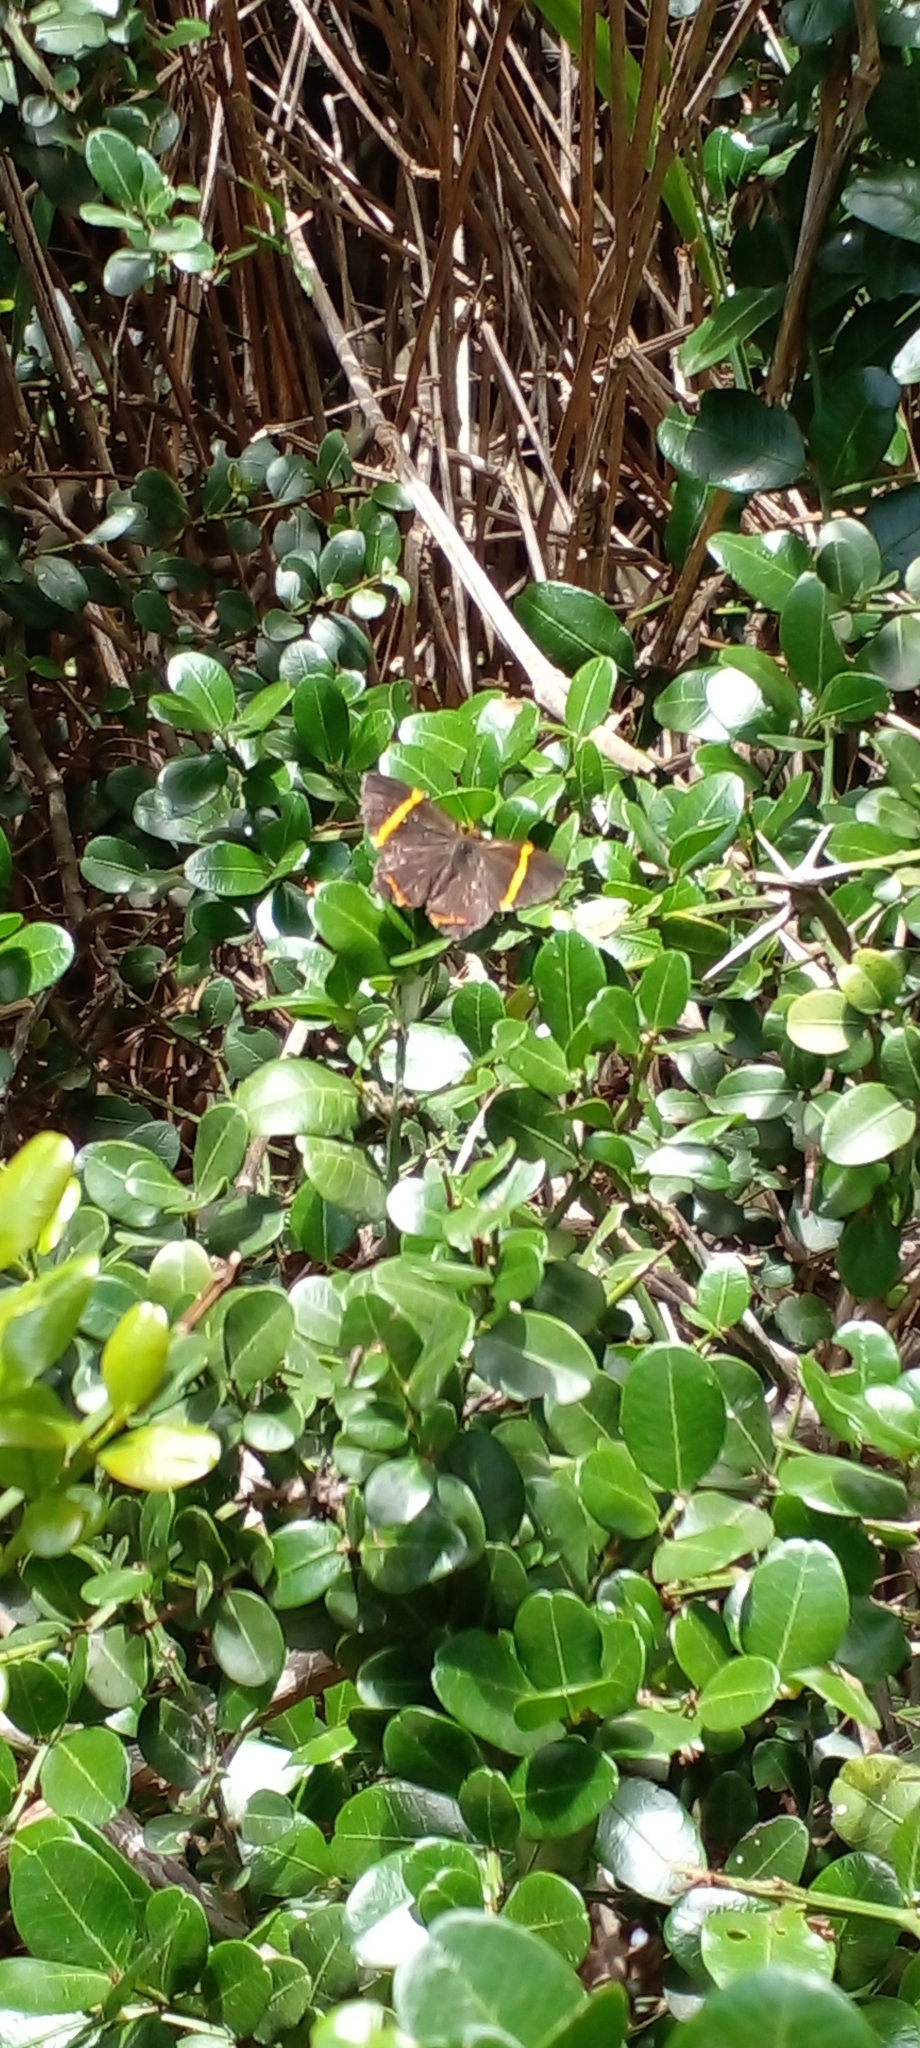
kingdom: Animalia
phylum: Arthropoda
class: Insecta
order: Lepidoptera
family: Riodinidae
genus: Riodina
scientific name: Riodina lysippoides
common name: Little dancer metalmark
